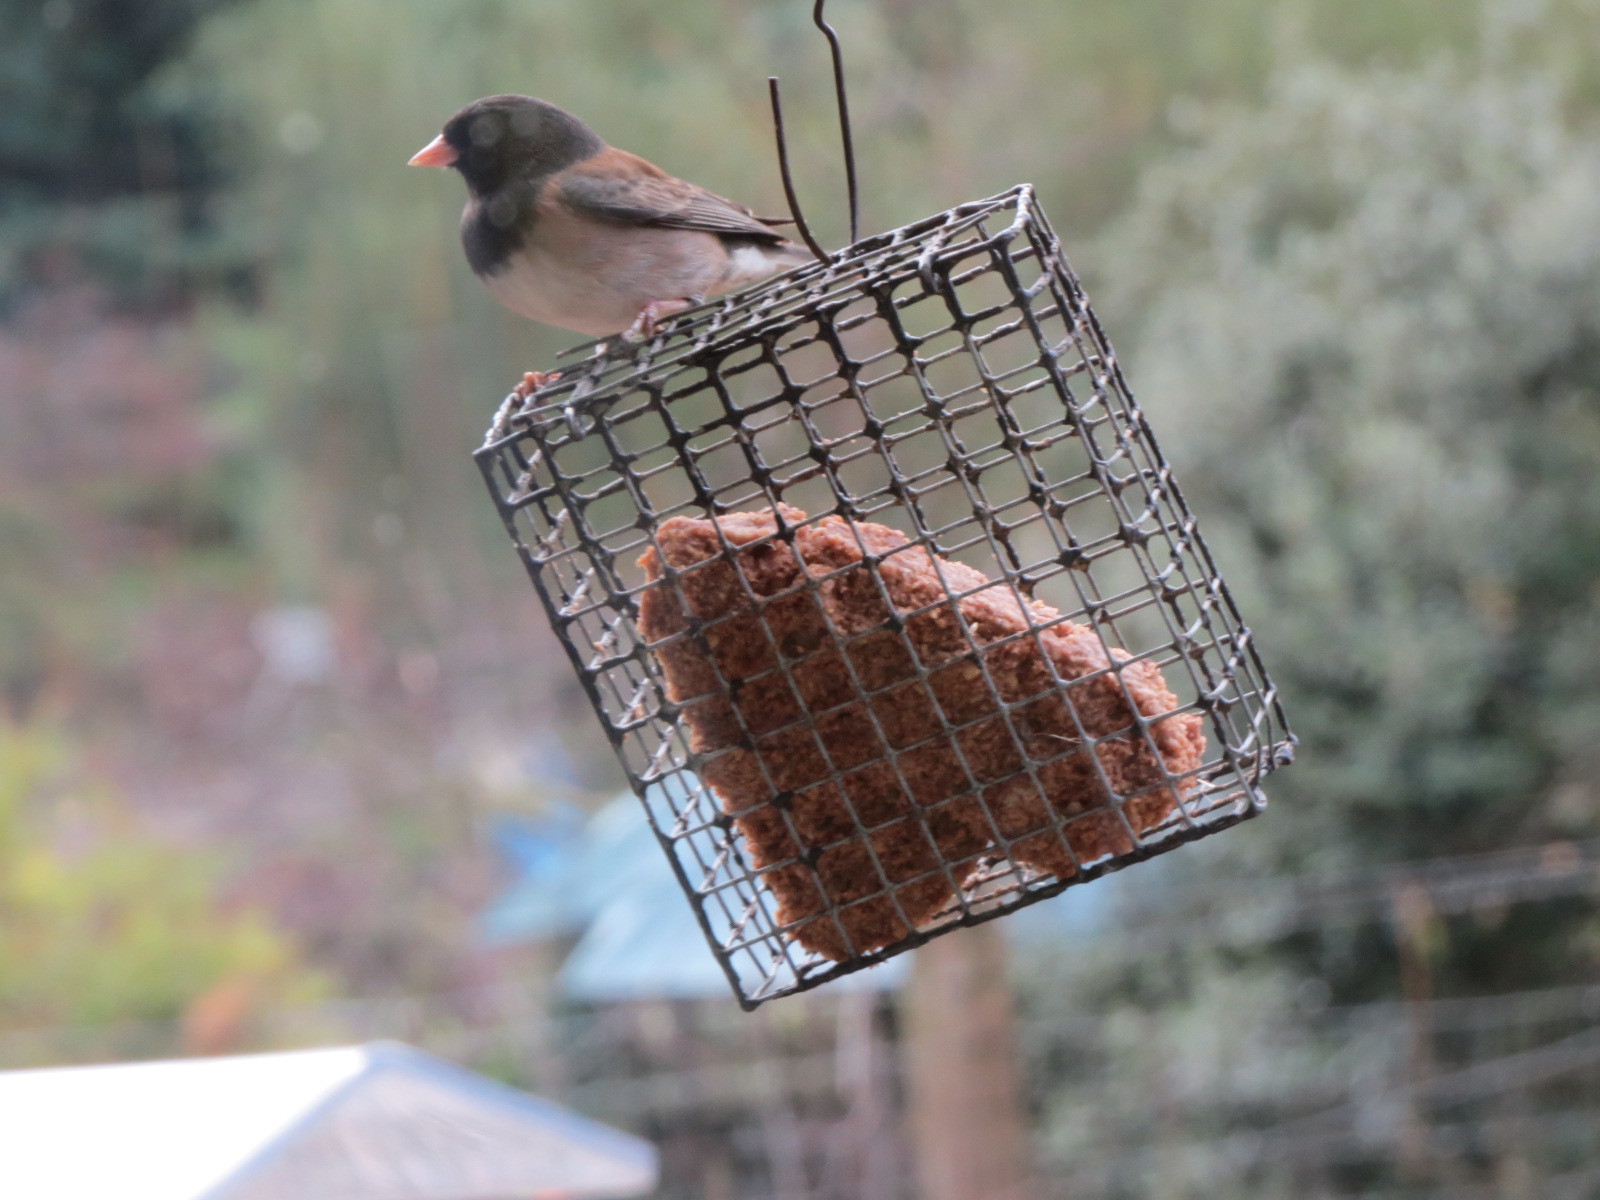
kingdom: Animalia
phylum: Chordata
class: Aves
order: Passeriformes
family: Passerellidae
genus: Junco
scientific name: Junco hyemalis
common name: Dark-eyed junco
